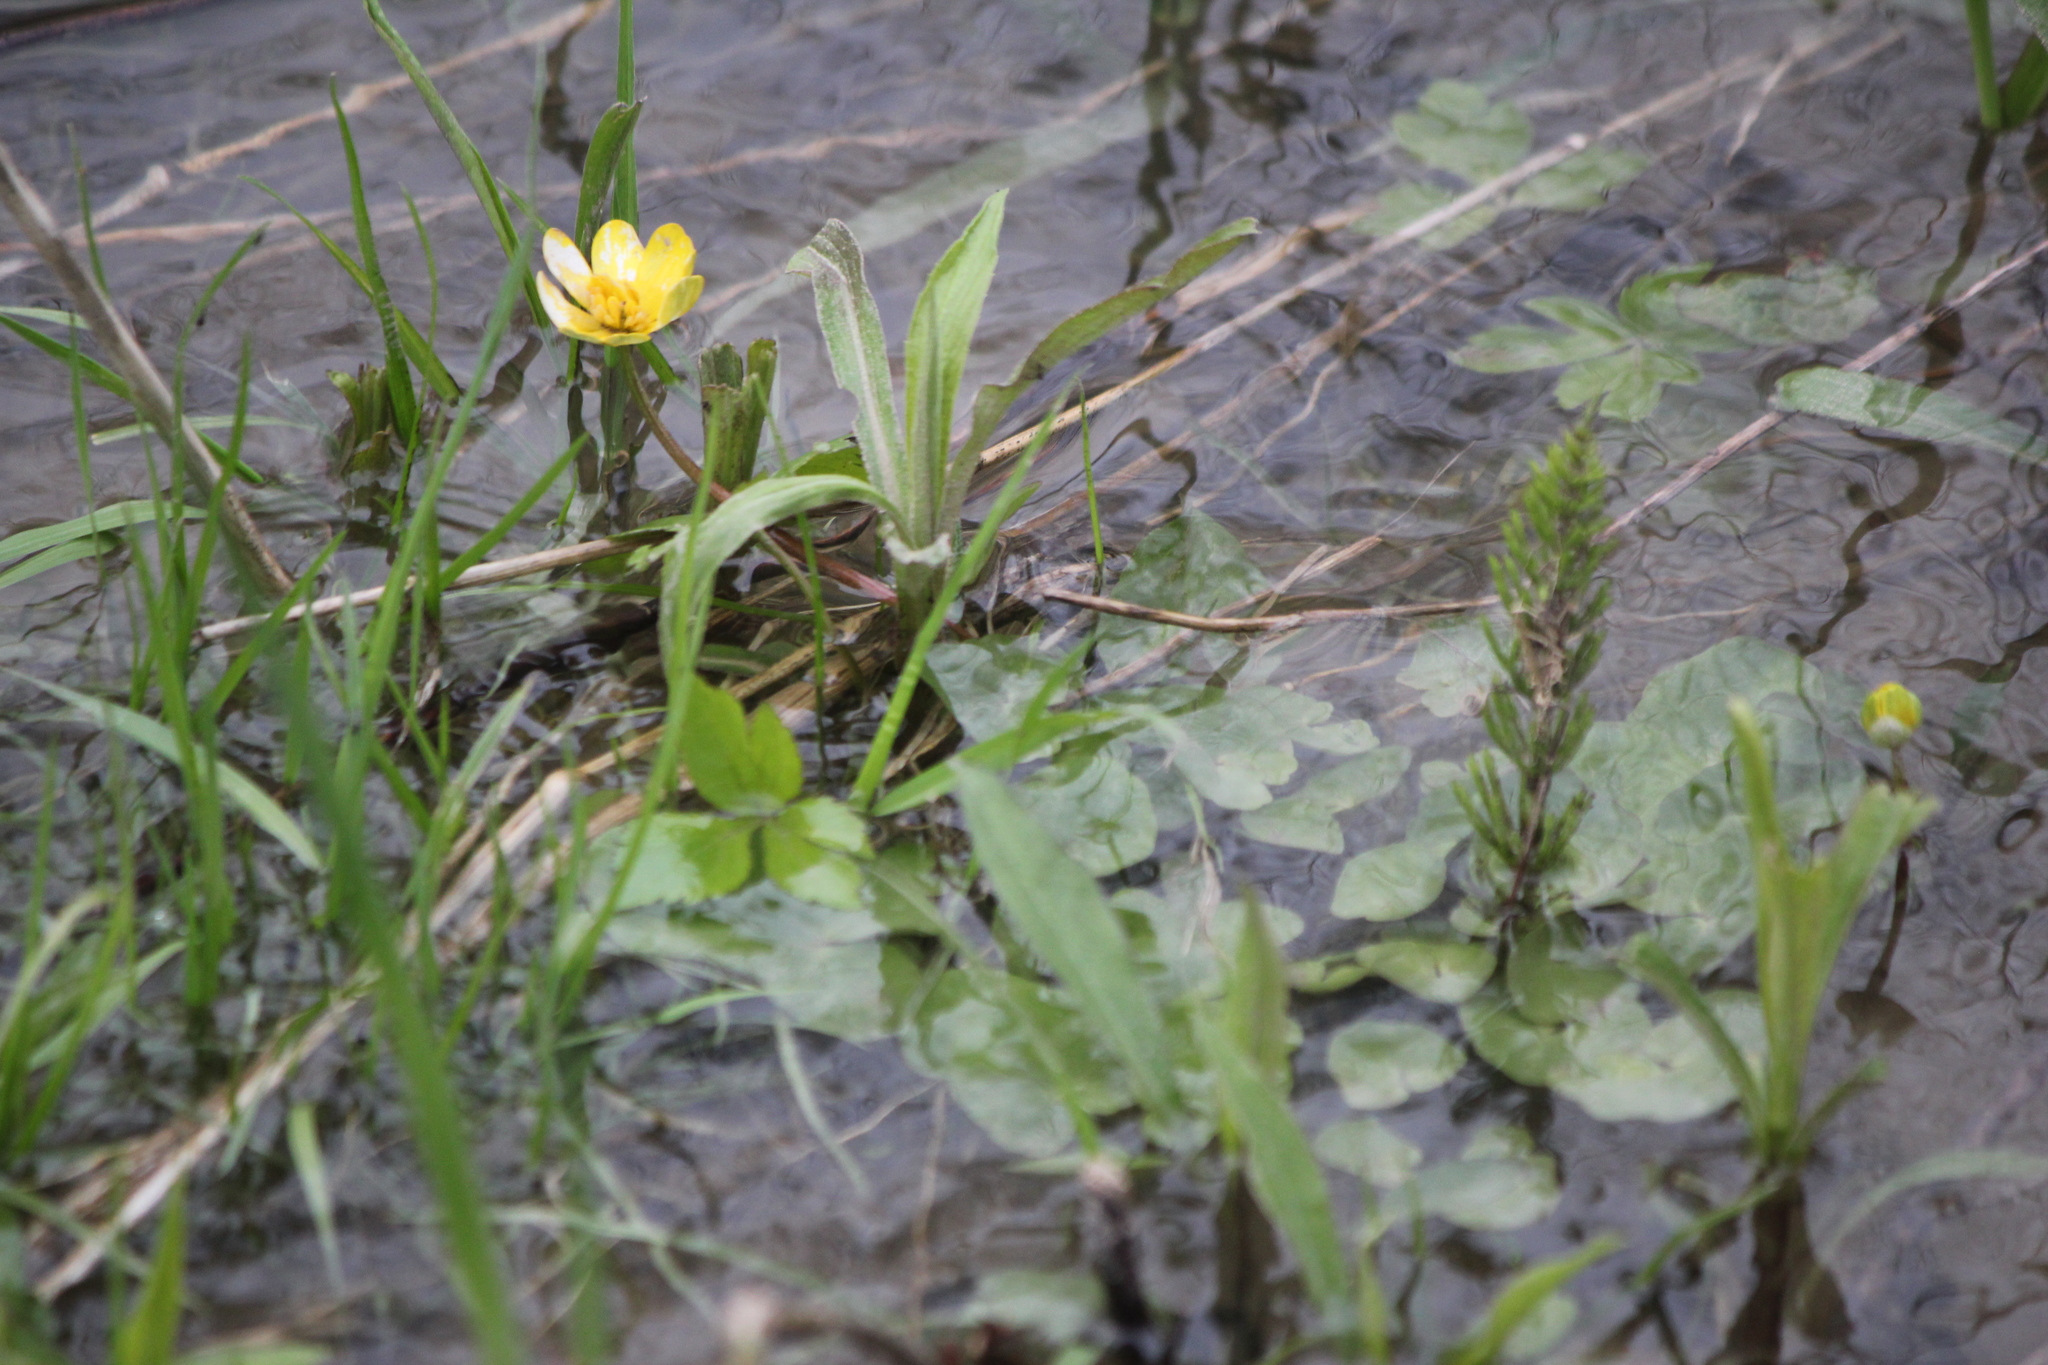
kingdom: Plantae
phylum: Tracheophyta
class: Magnoliopsida
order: Ranunculales
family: Ranunculaceae
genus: Ficaria
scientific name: Ficaria verna
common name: Lesser celandine
